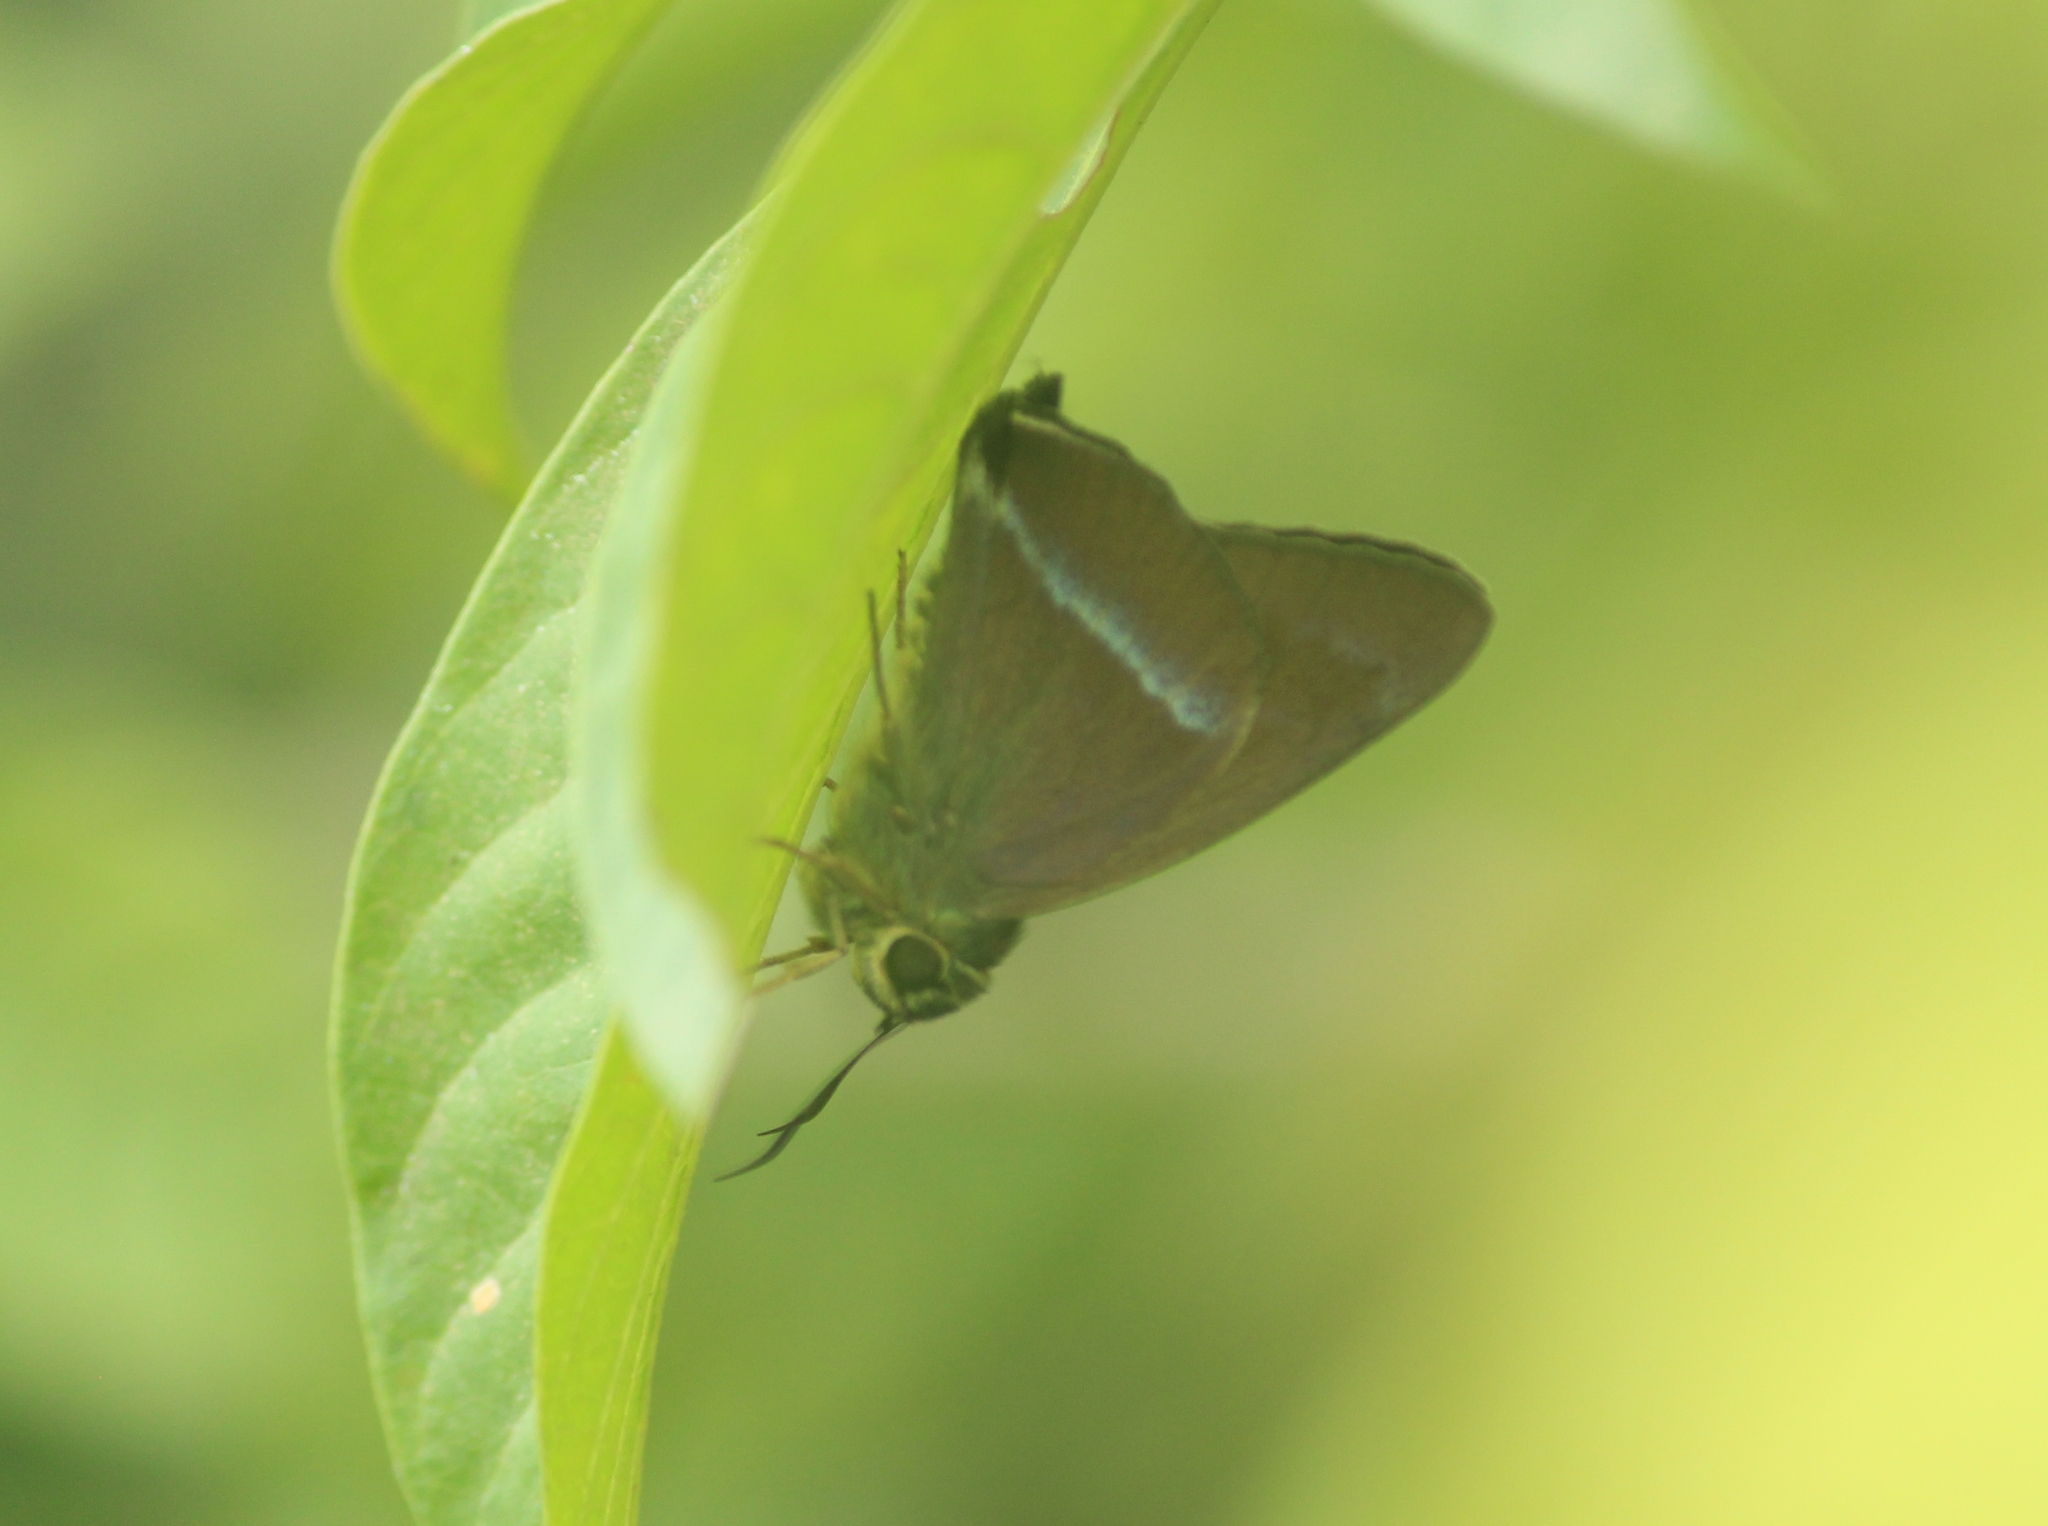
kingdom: Animalia
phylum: Arthropoda
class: Insecta
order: Lepidoptera
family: Hesperiidae
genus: Hasora
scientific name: Hasora chromus
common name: Common banded awl
